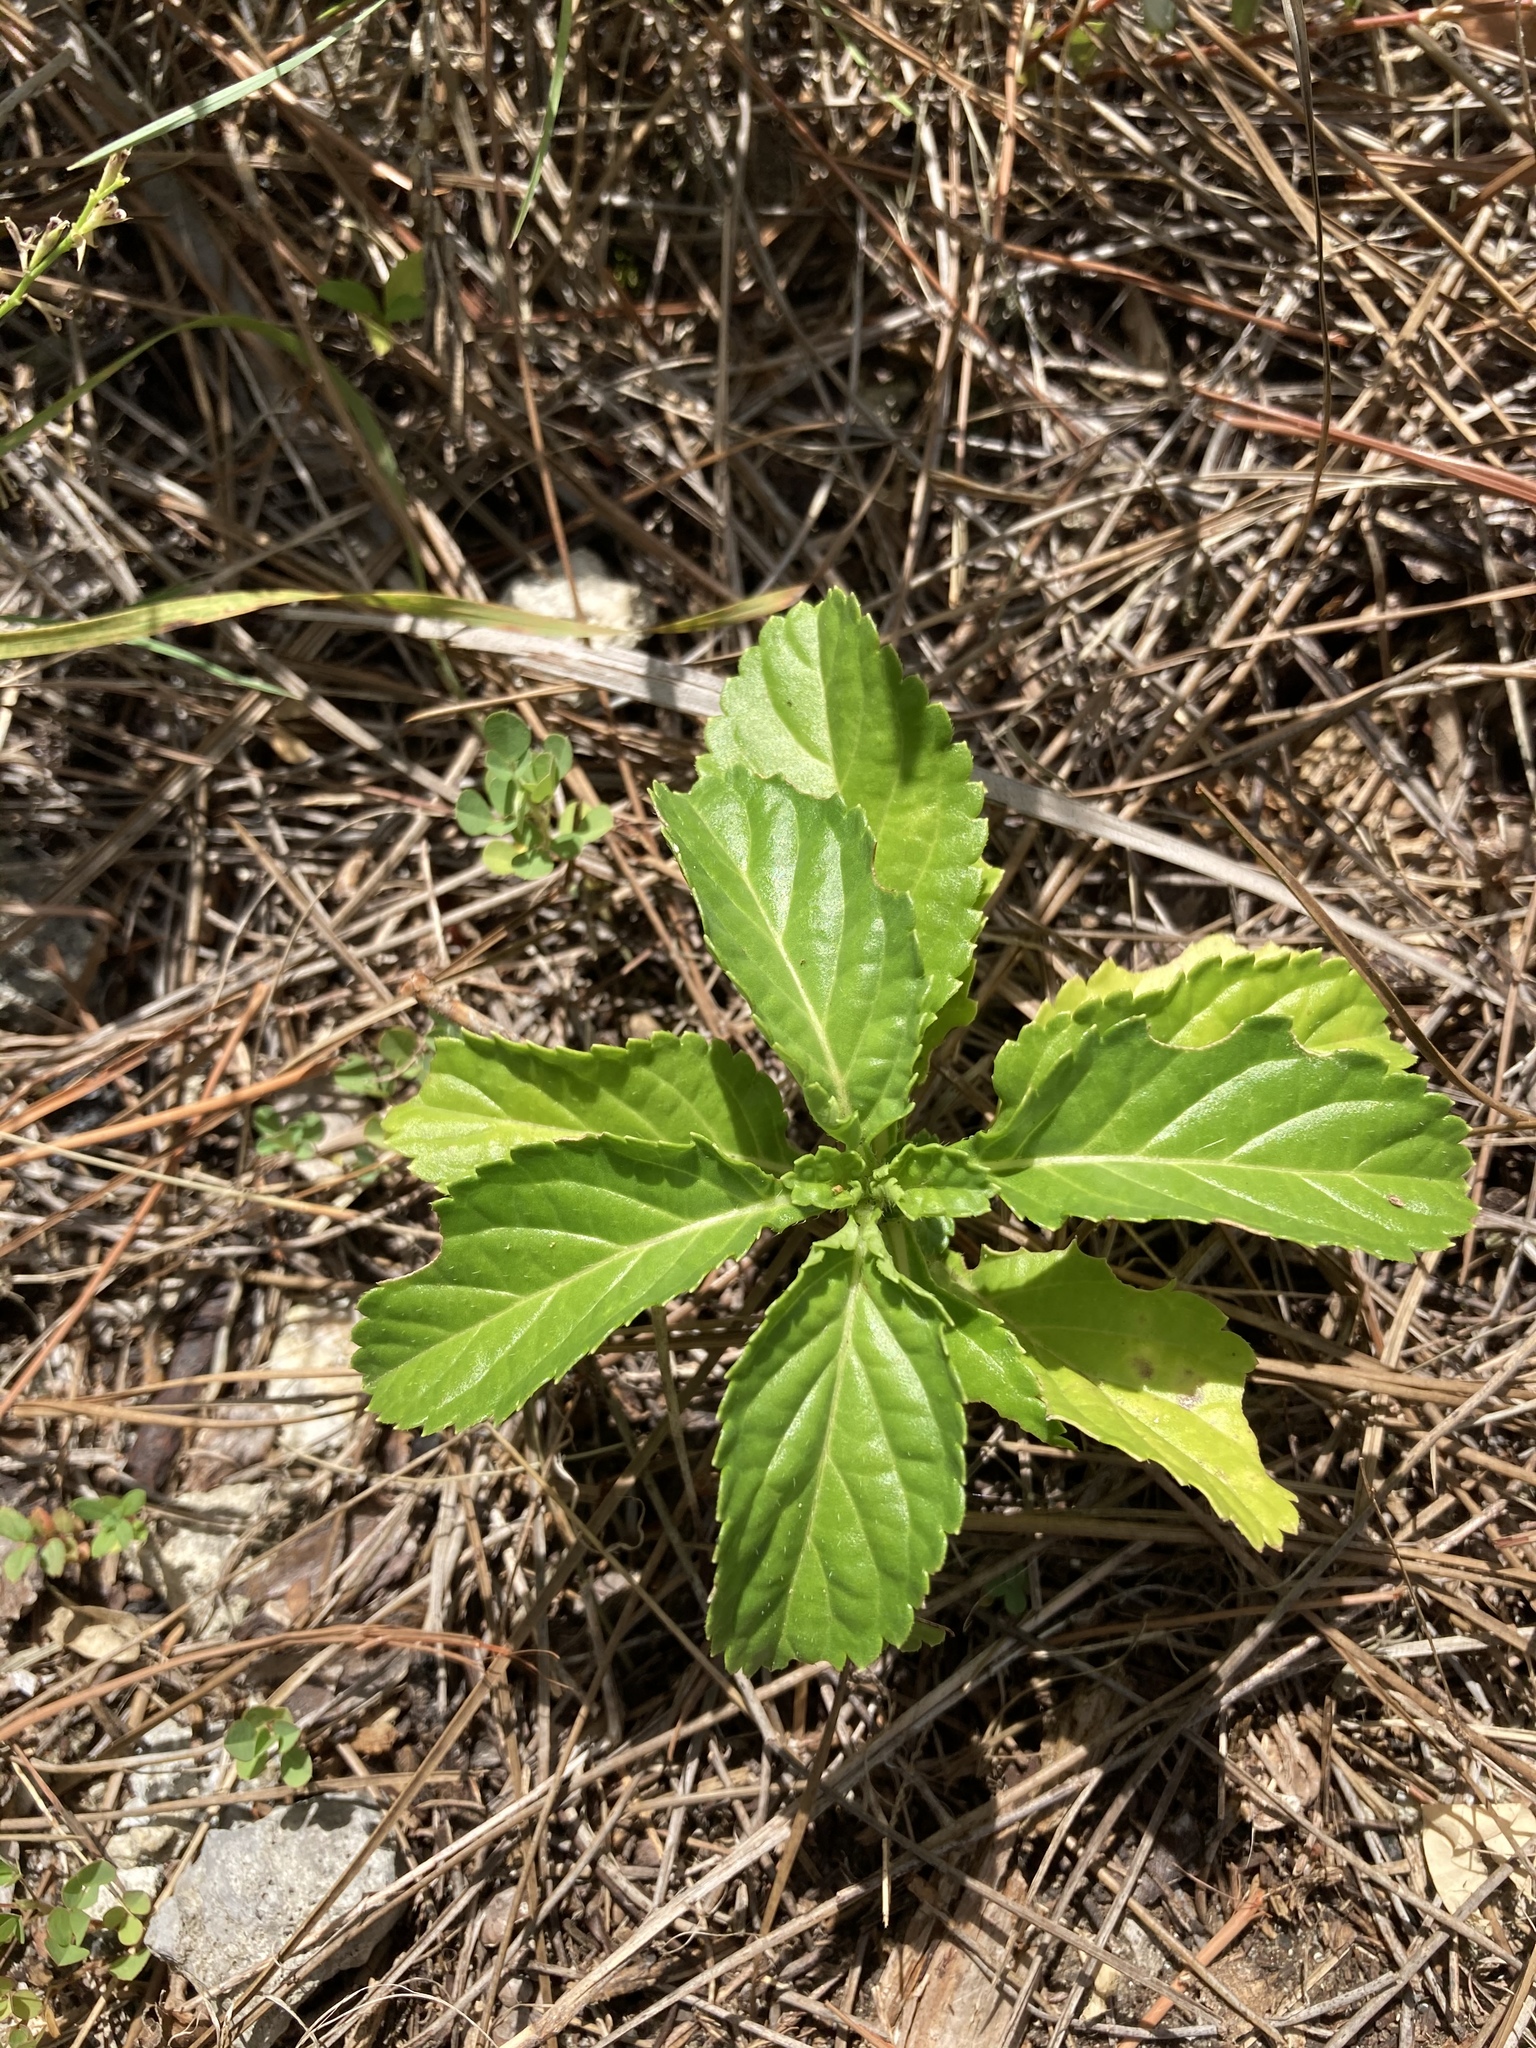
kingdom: Plantae
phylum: Tracheophyta
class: Magnoliopsida
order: Lamiales
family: Verbenaceae
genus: Stachytarpheta
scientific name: Stachytarpheta jamaicensis
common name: Light-blue snakeweed
